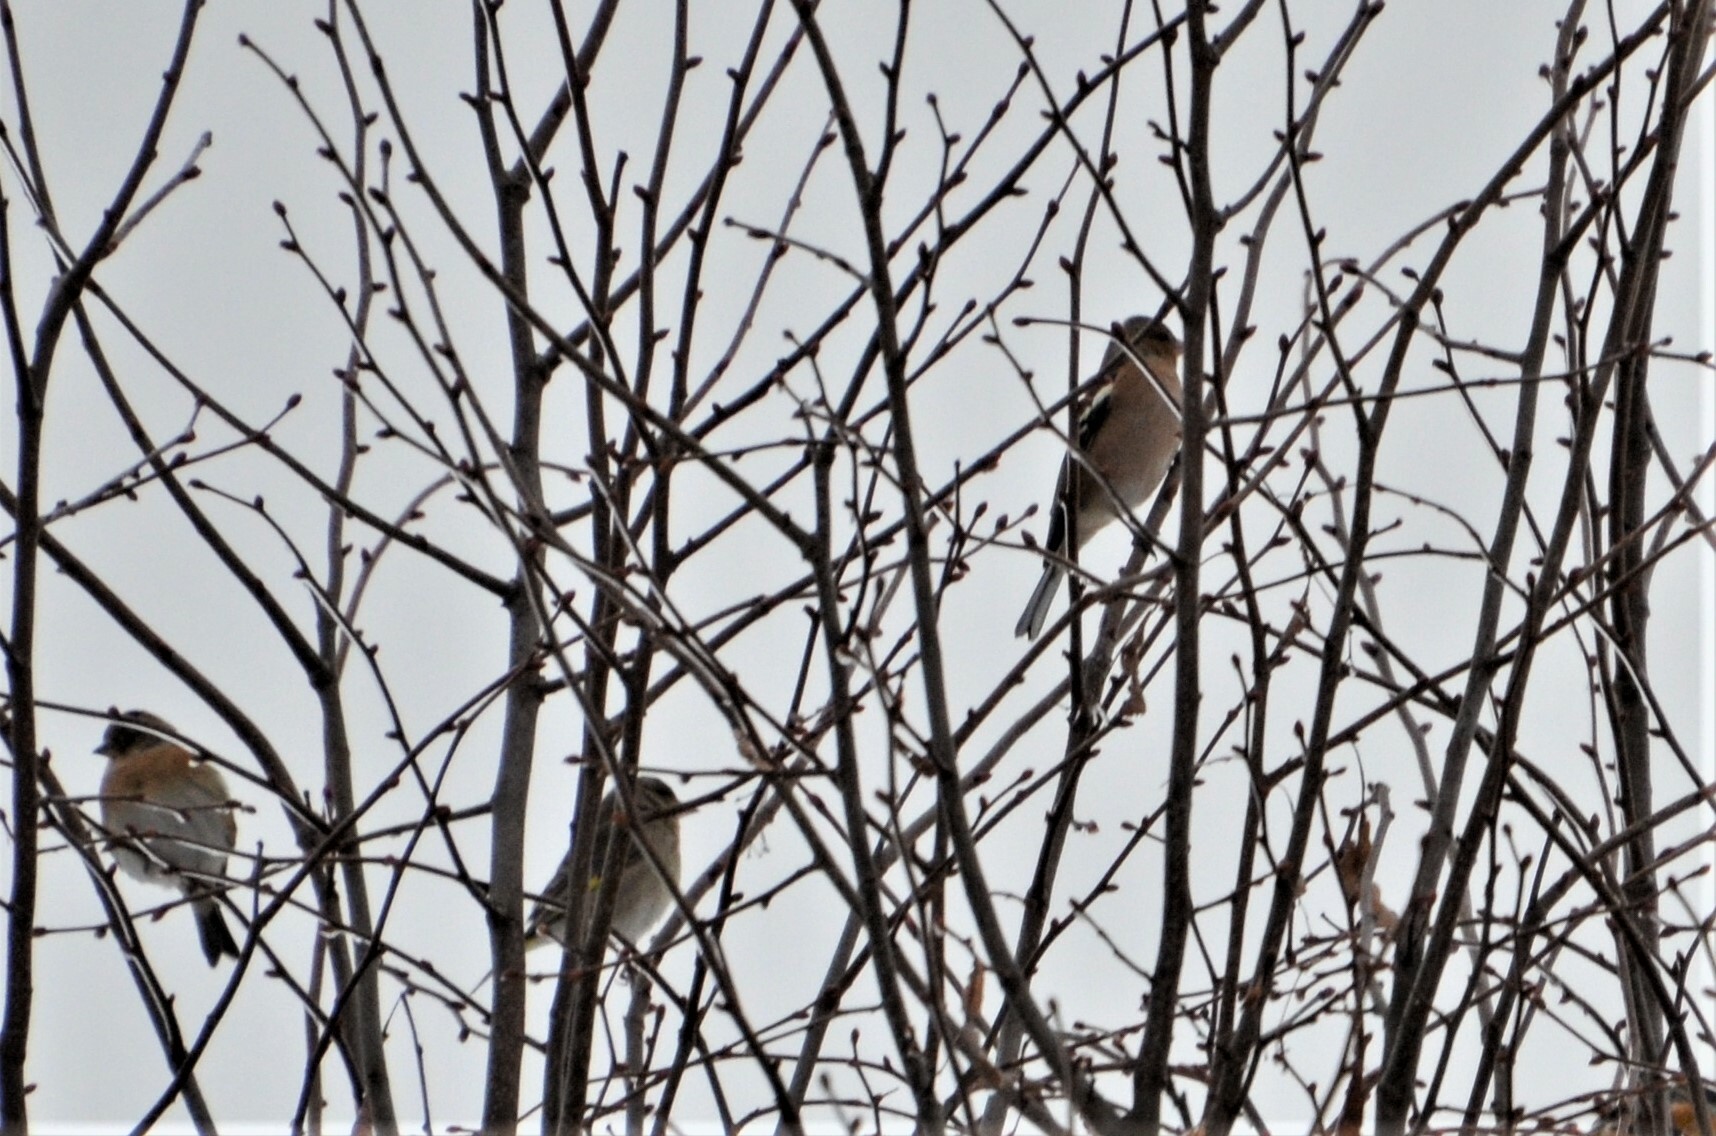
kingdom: Animalia
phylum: Chordata
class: Aves
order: Passeriformes
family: Fringillidae
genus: Fringilla
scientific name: Fringilla montifringilla
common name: Brambling
